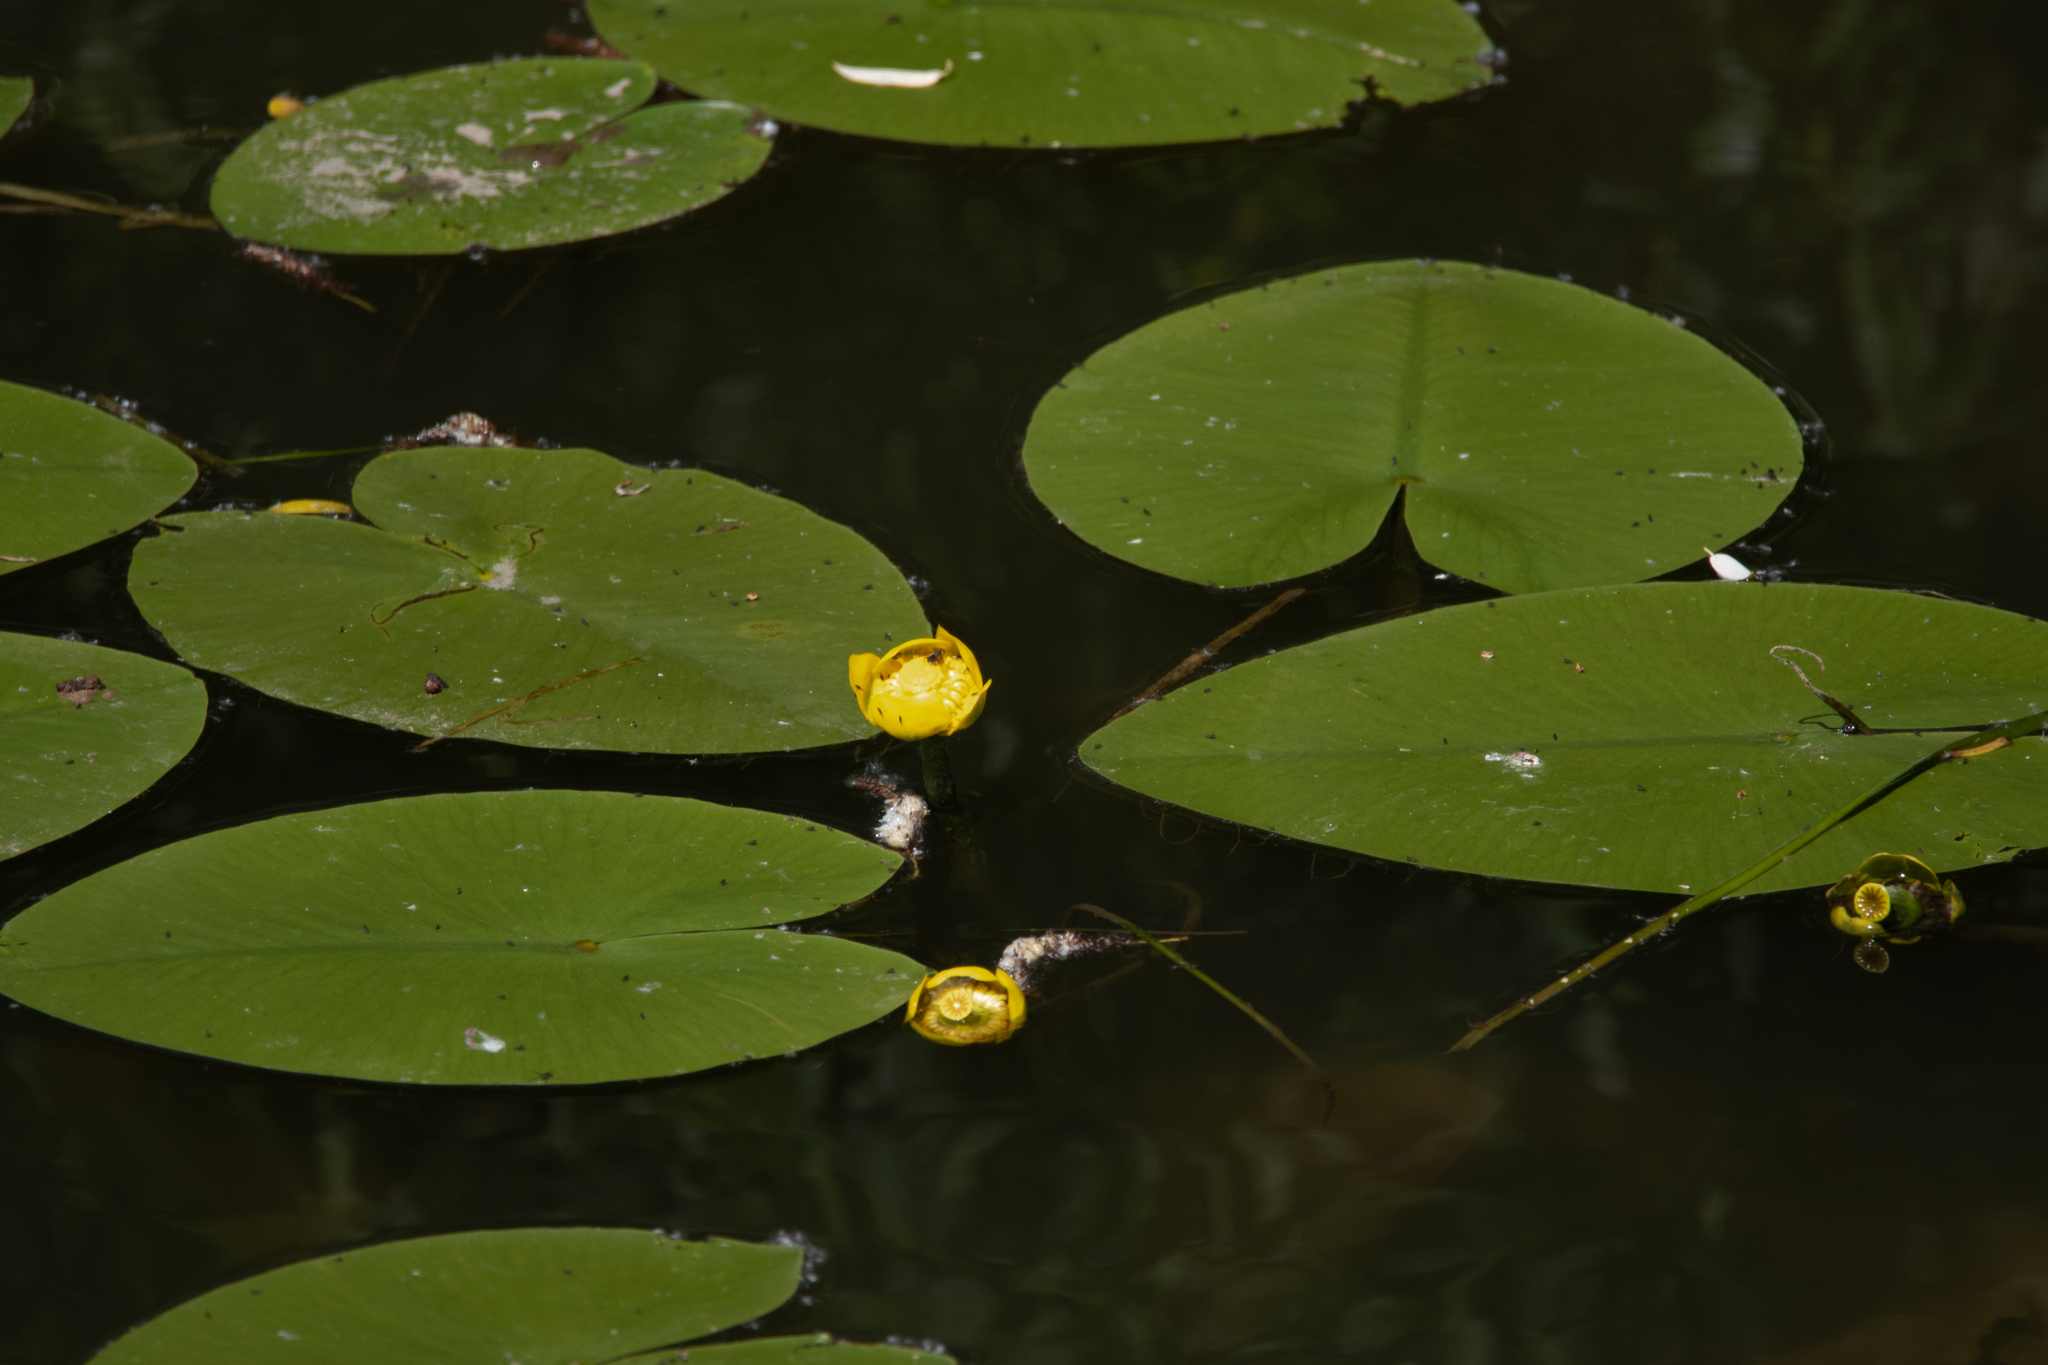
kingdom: Plantae
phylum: Tracheophyta
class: Magnoliopsida
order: Nymphaeales
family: Nymphaeaceae
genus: Nuphar
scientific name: Nuphar lutea
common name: Yellow water-lily
